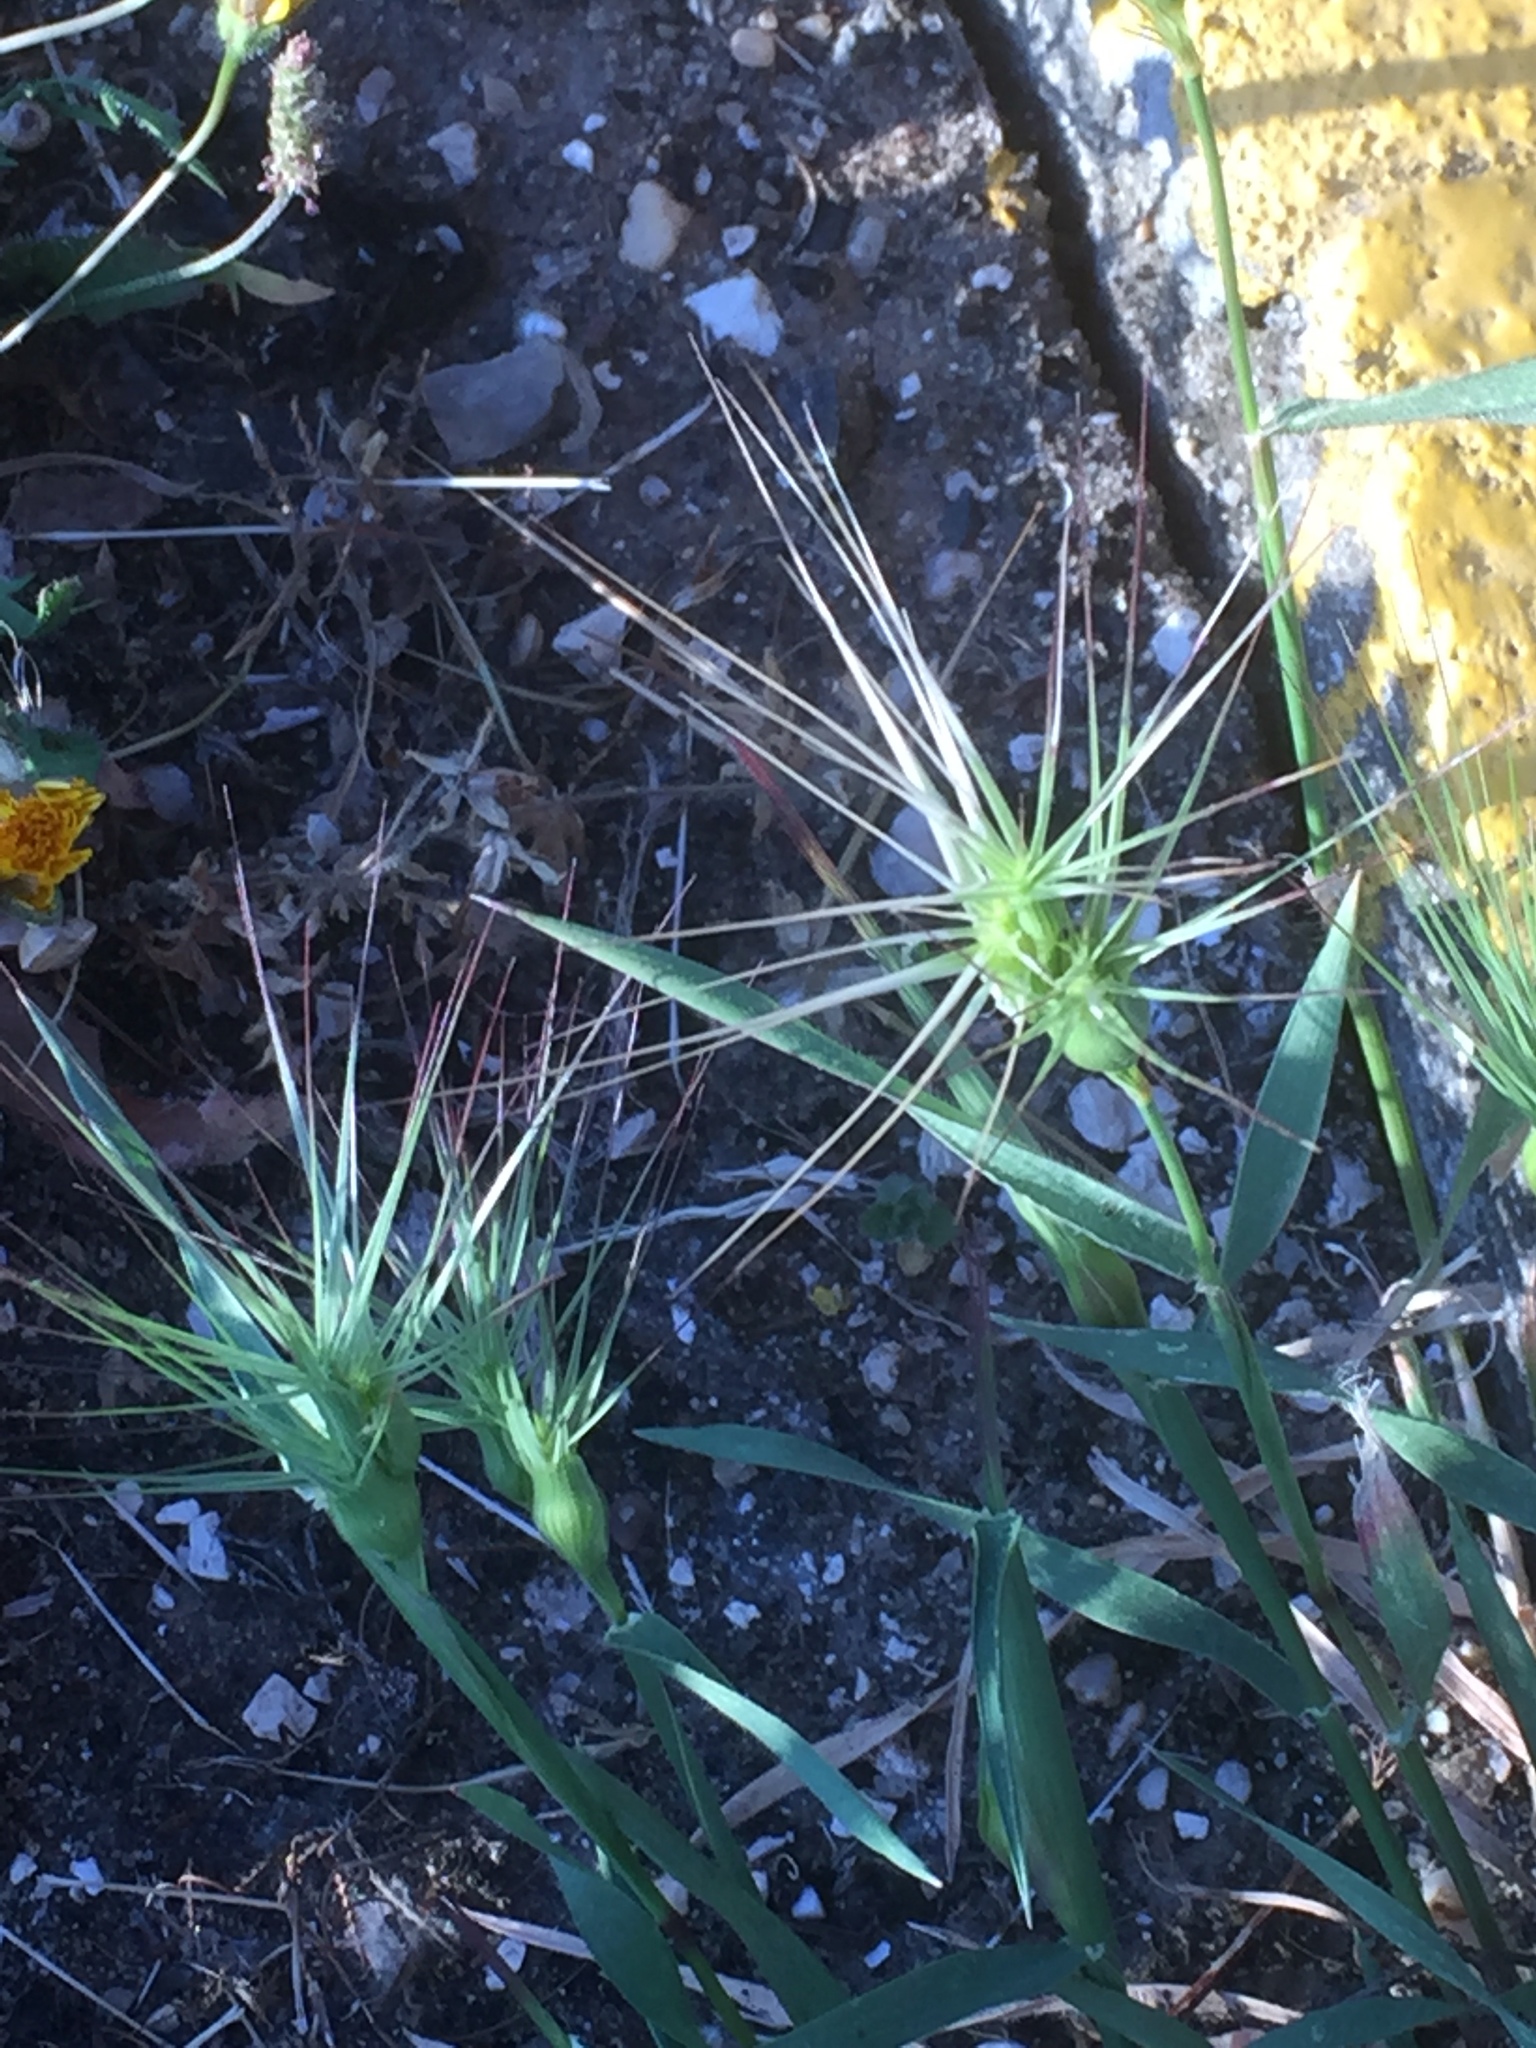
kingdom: Plantae
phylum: Tracheophyta
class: Liliopsida
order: Poales
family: Poaceae
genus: Aegilops
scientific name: Aegilops geniculata
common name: Ovate goat grass
